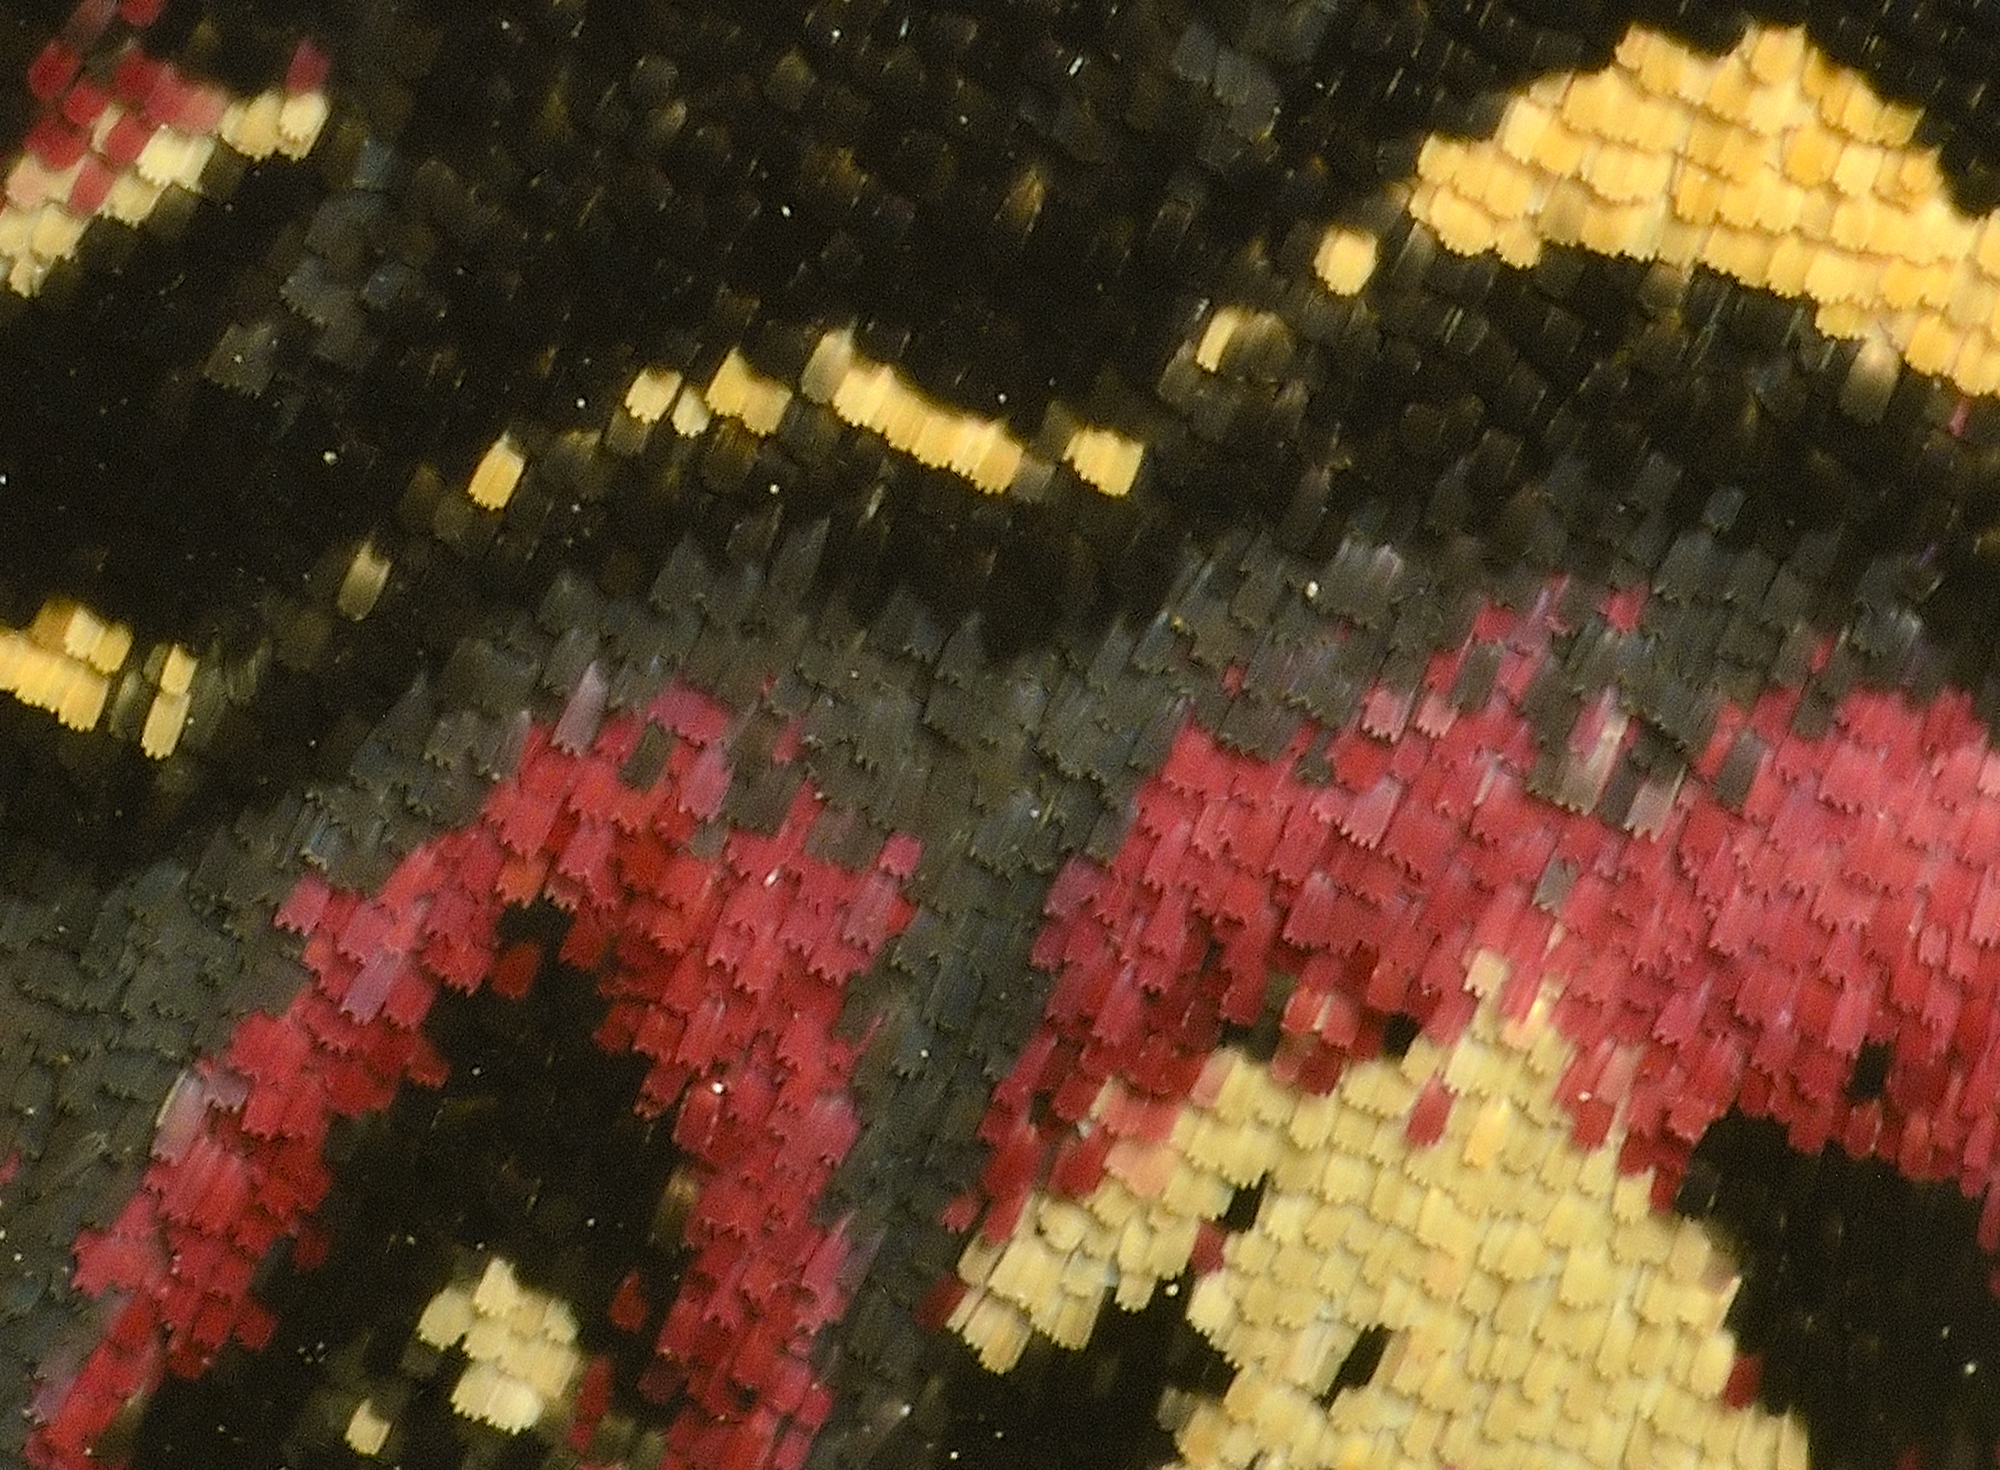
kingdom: Animalia
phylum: Arthropoda
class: Insecta
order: Lepidoptera
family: Noctuidae
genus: Polytela
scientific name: Polytela gloriosae
